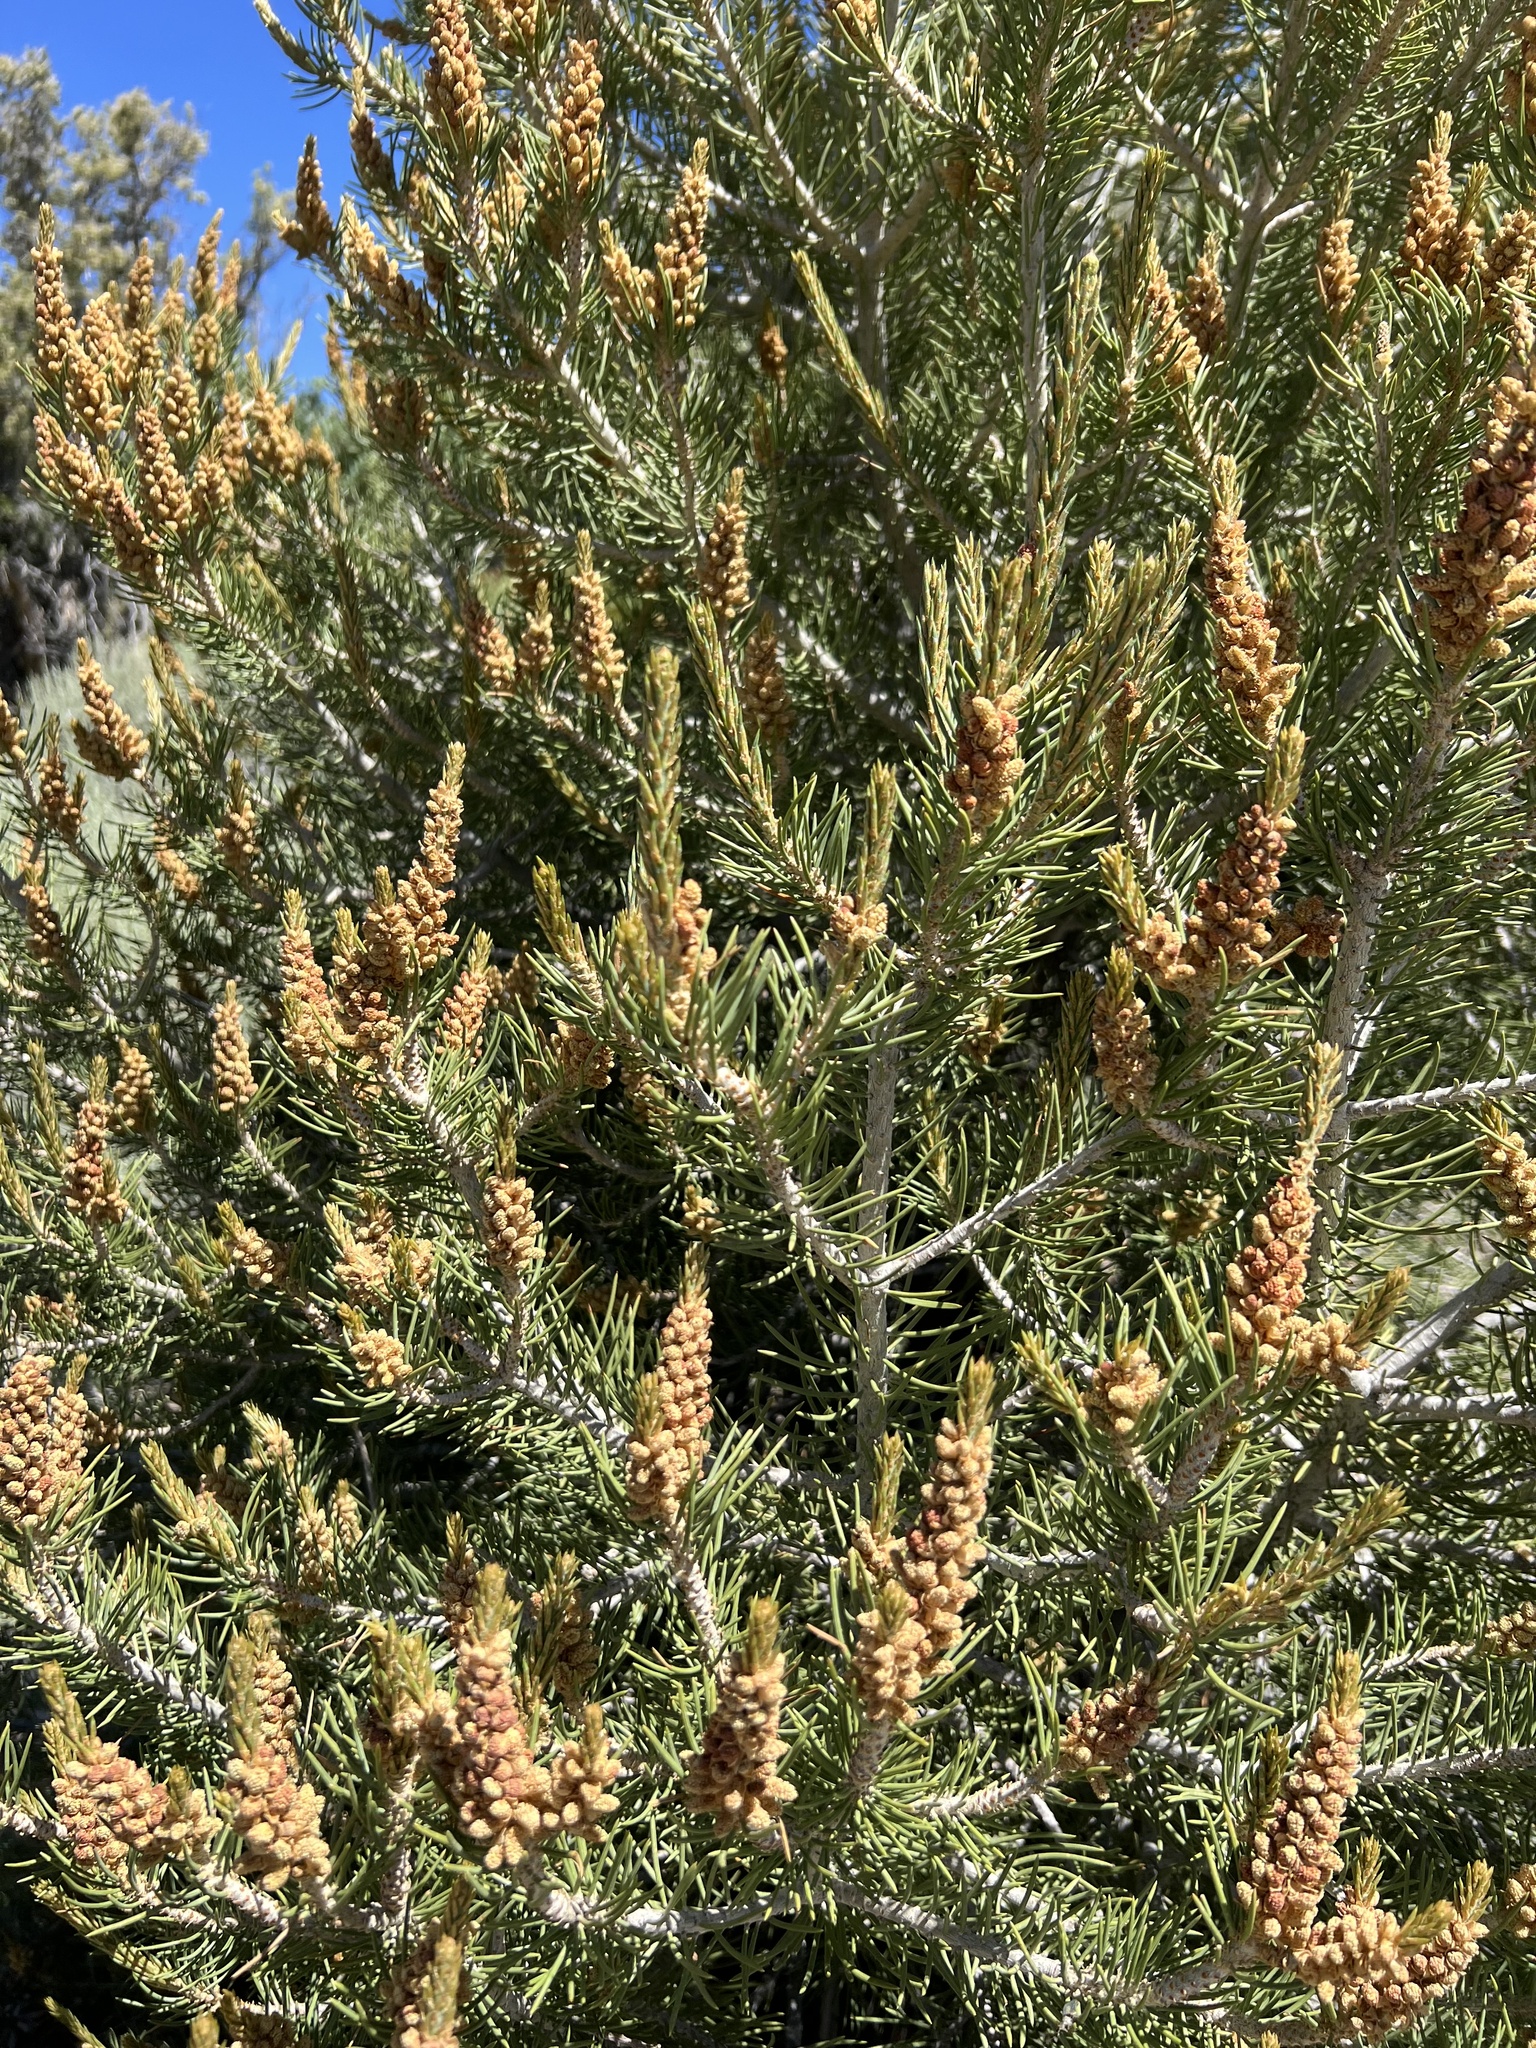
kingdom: Plantae
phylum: Tracheophyta
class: Pinopsida
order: Pinales
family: Pinaceae
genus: Pinus
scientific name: Pinus monophylla
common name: One-leaved nut pine
